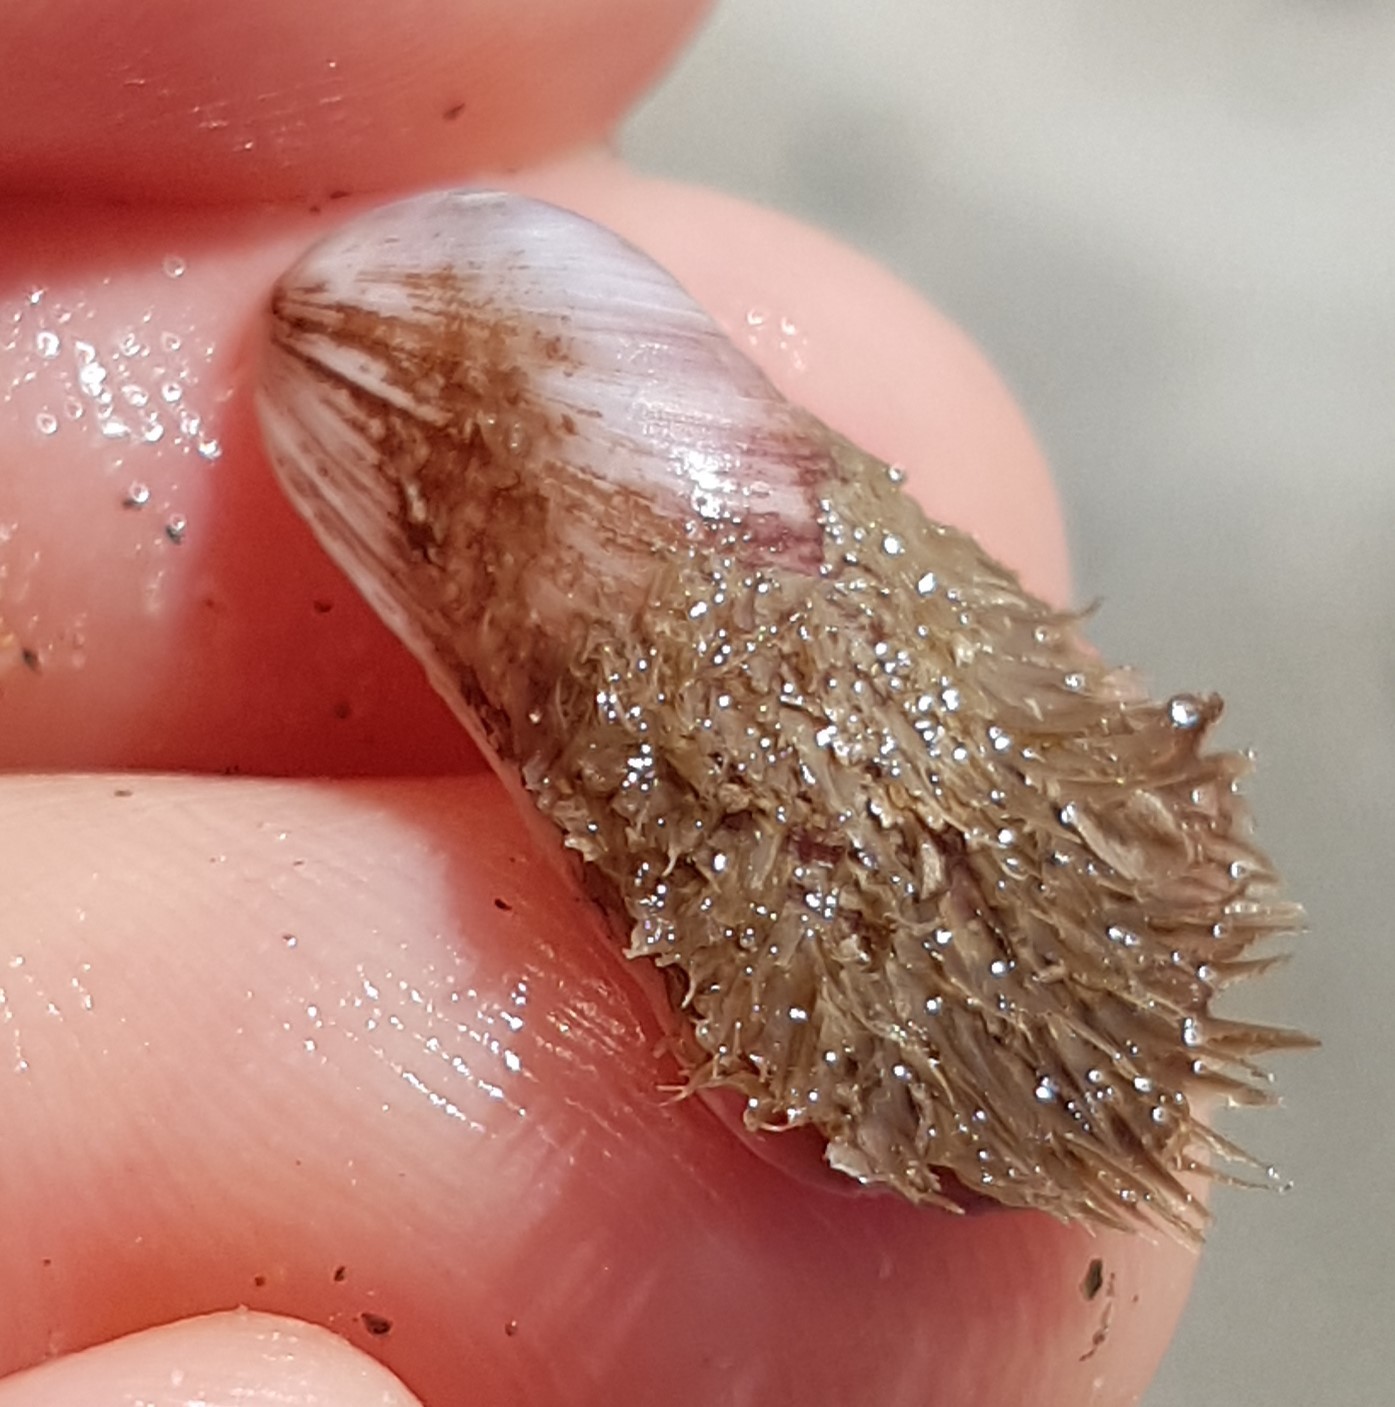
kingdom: Animalia
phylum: Mollusca
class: Bivalvia
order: Mytilida
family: Mytilidae
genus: Modiolus
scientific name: Modiolus barbatus
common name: Bearded mussel
